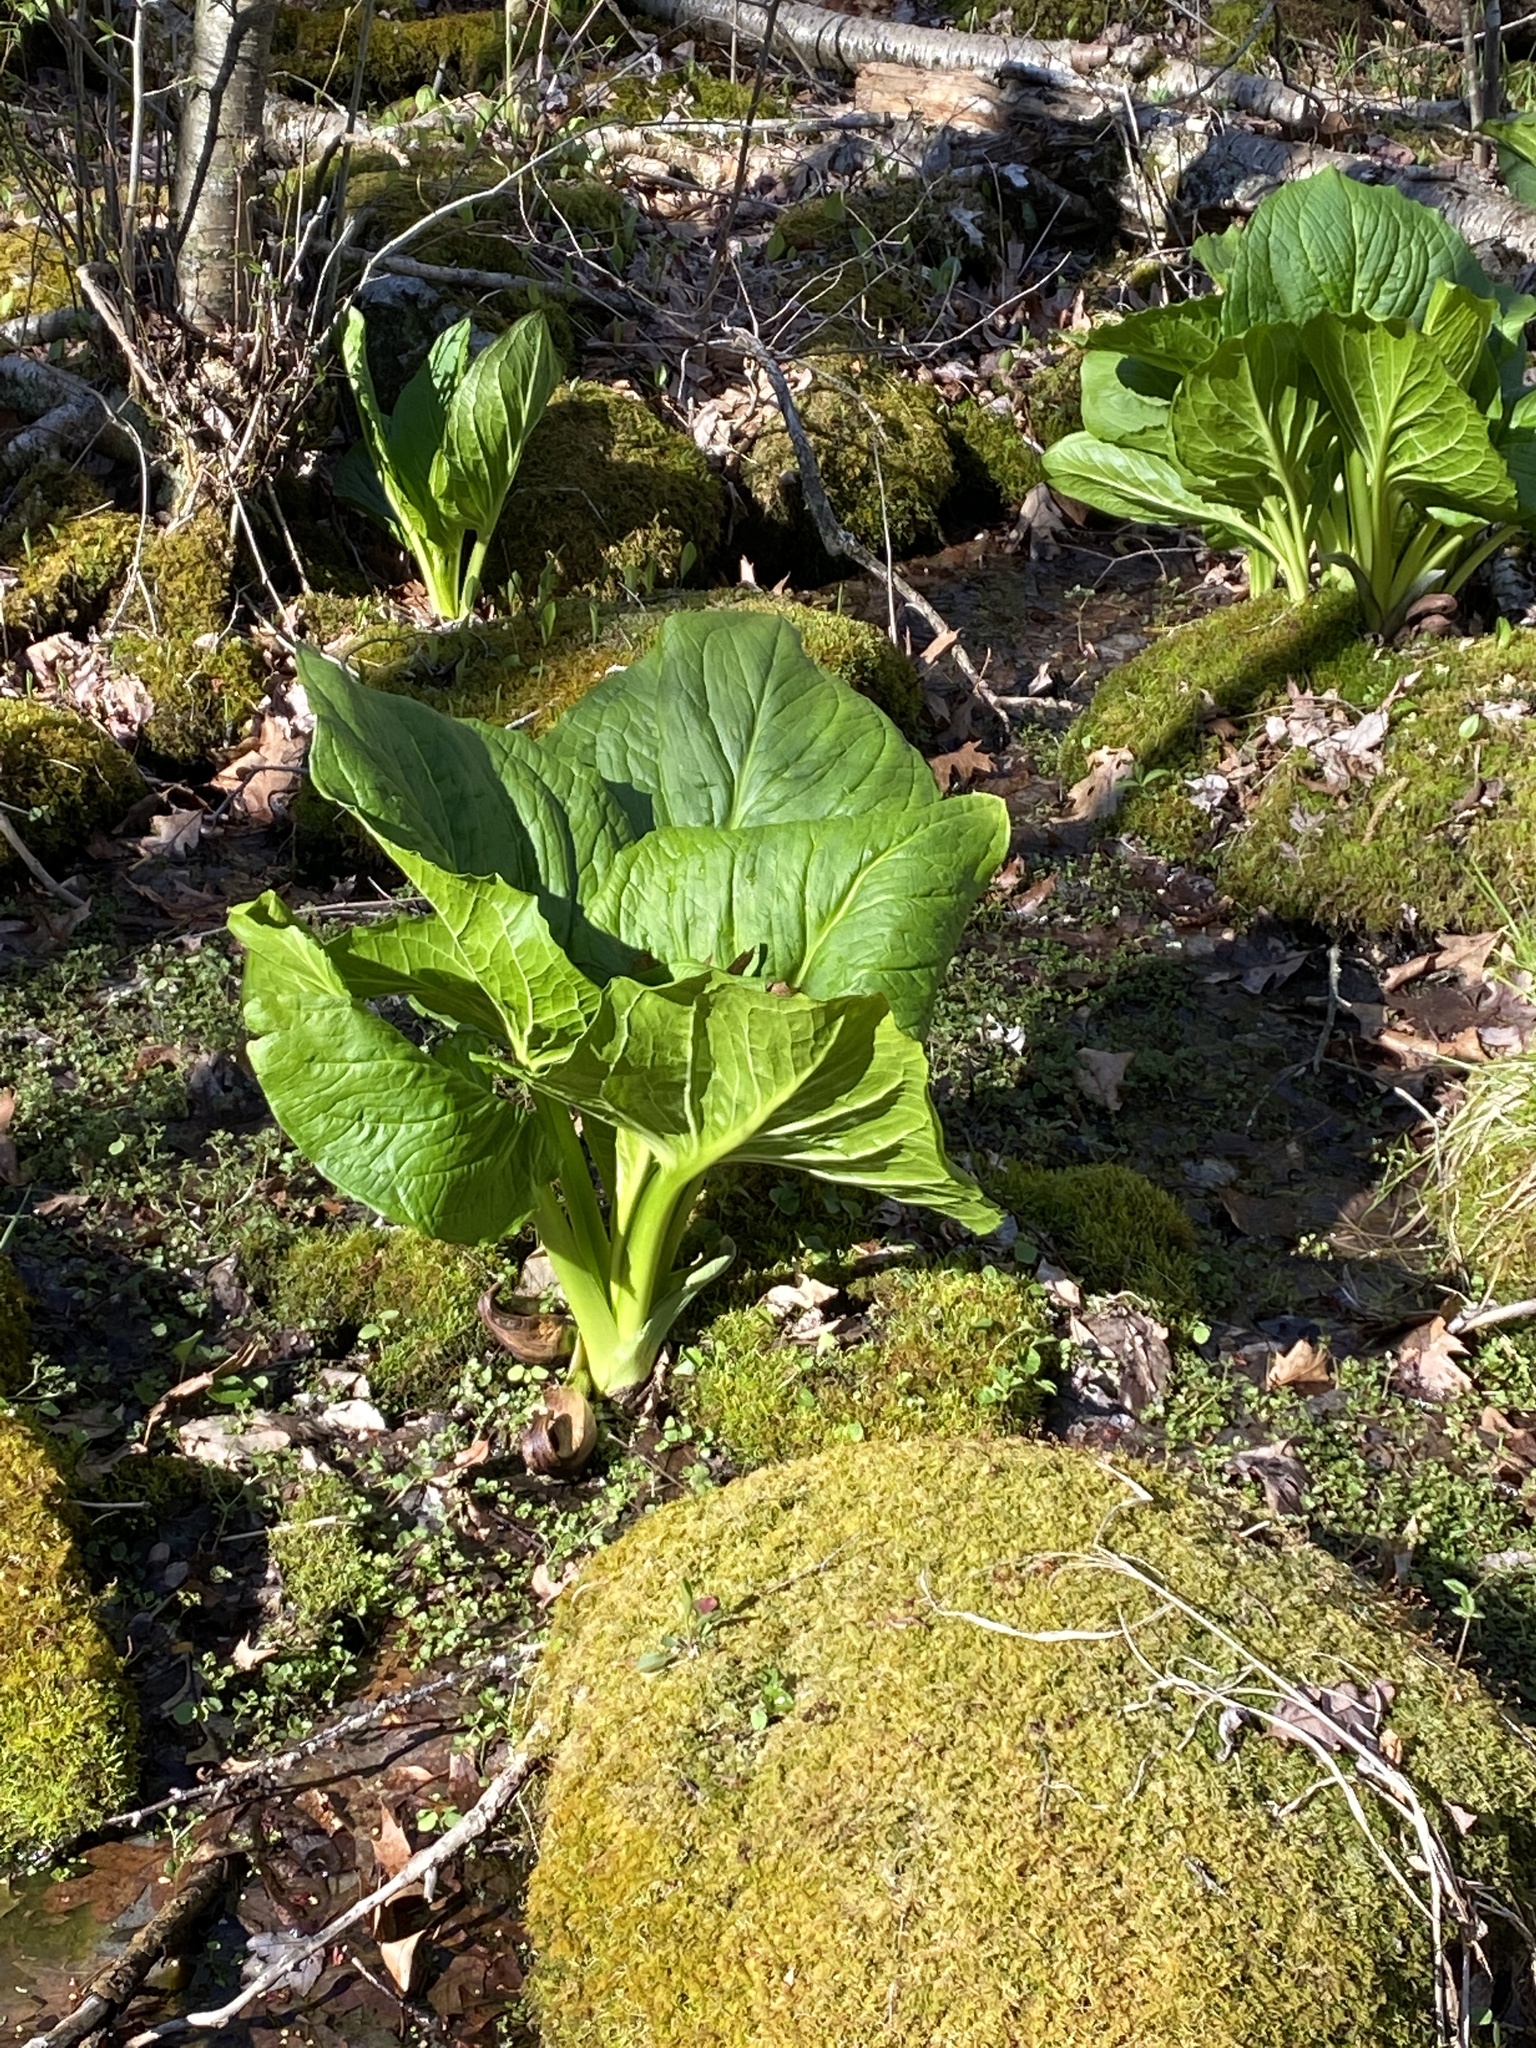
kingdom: Plantae
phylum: Tracheophyta
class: Liliopsida
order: Alismatales
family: Araceae
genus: Symplocarpus
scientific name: Symplocarpus foetidus
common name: Eastern skunk cabbage
